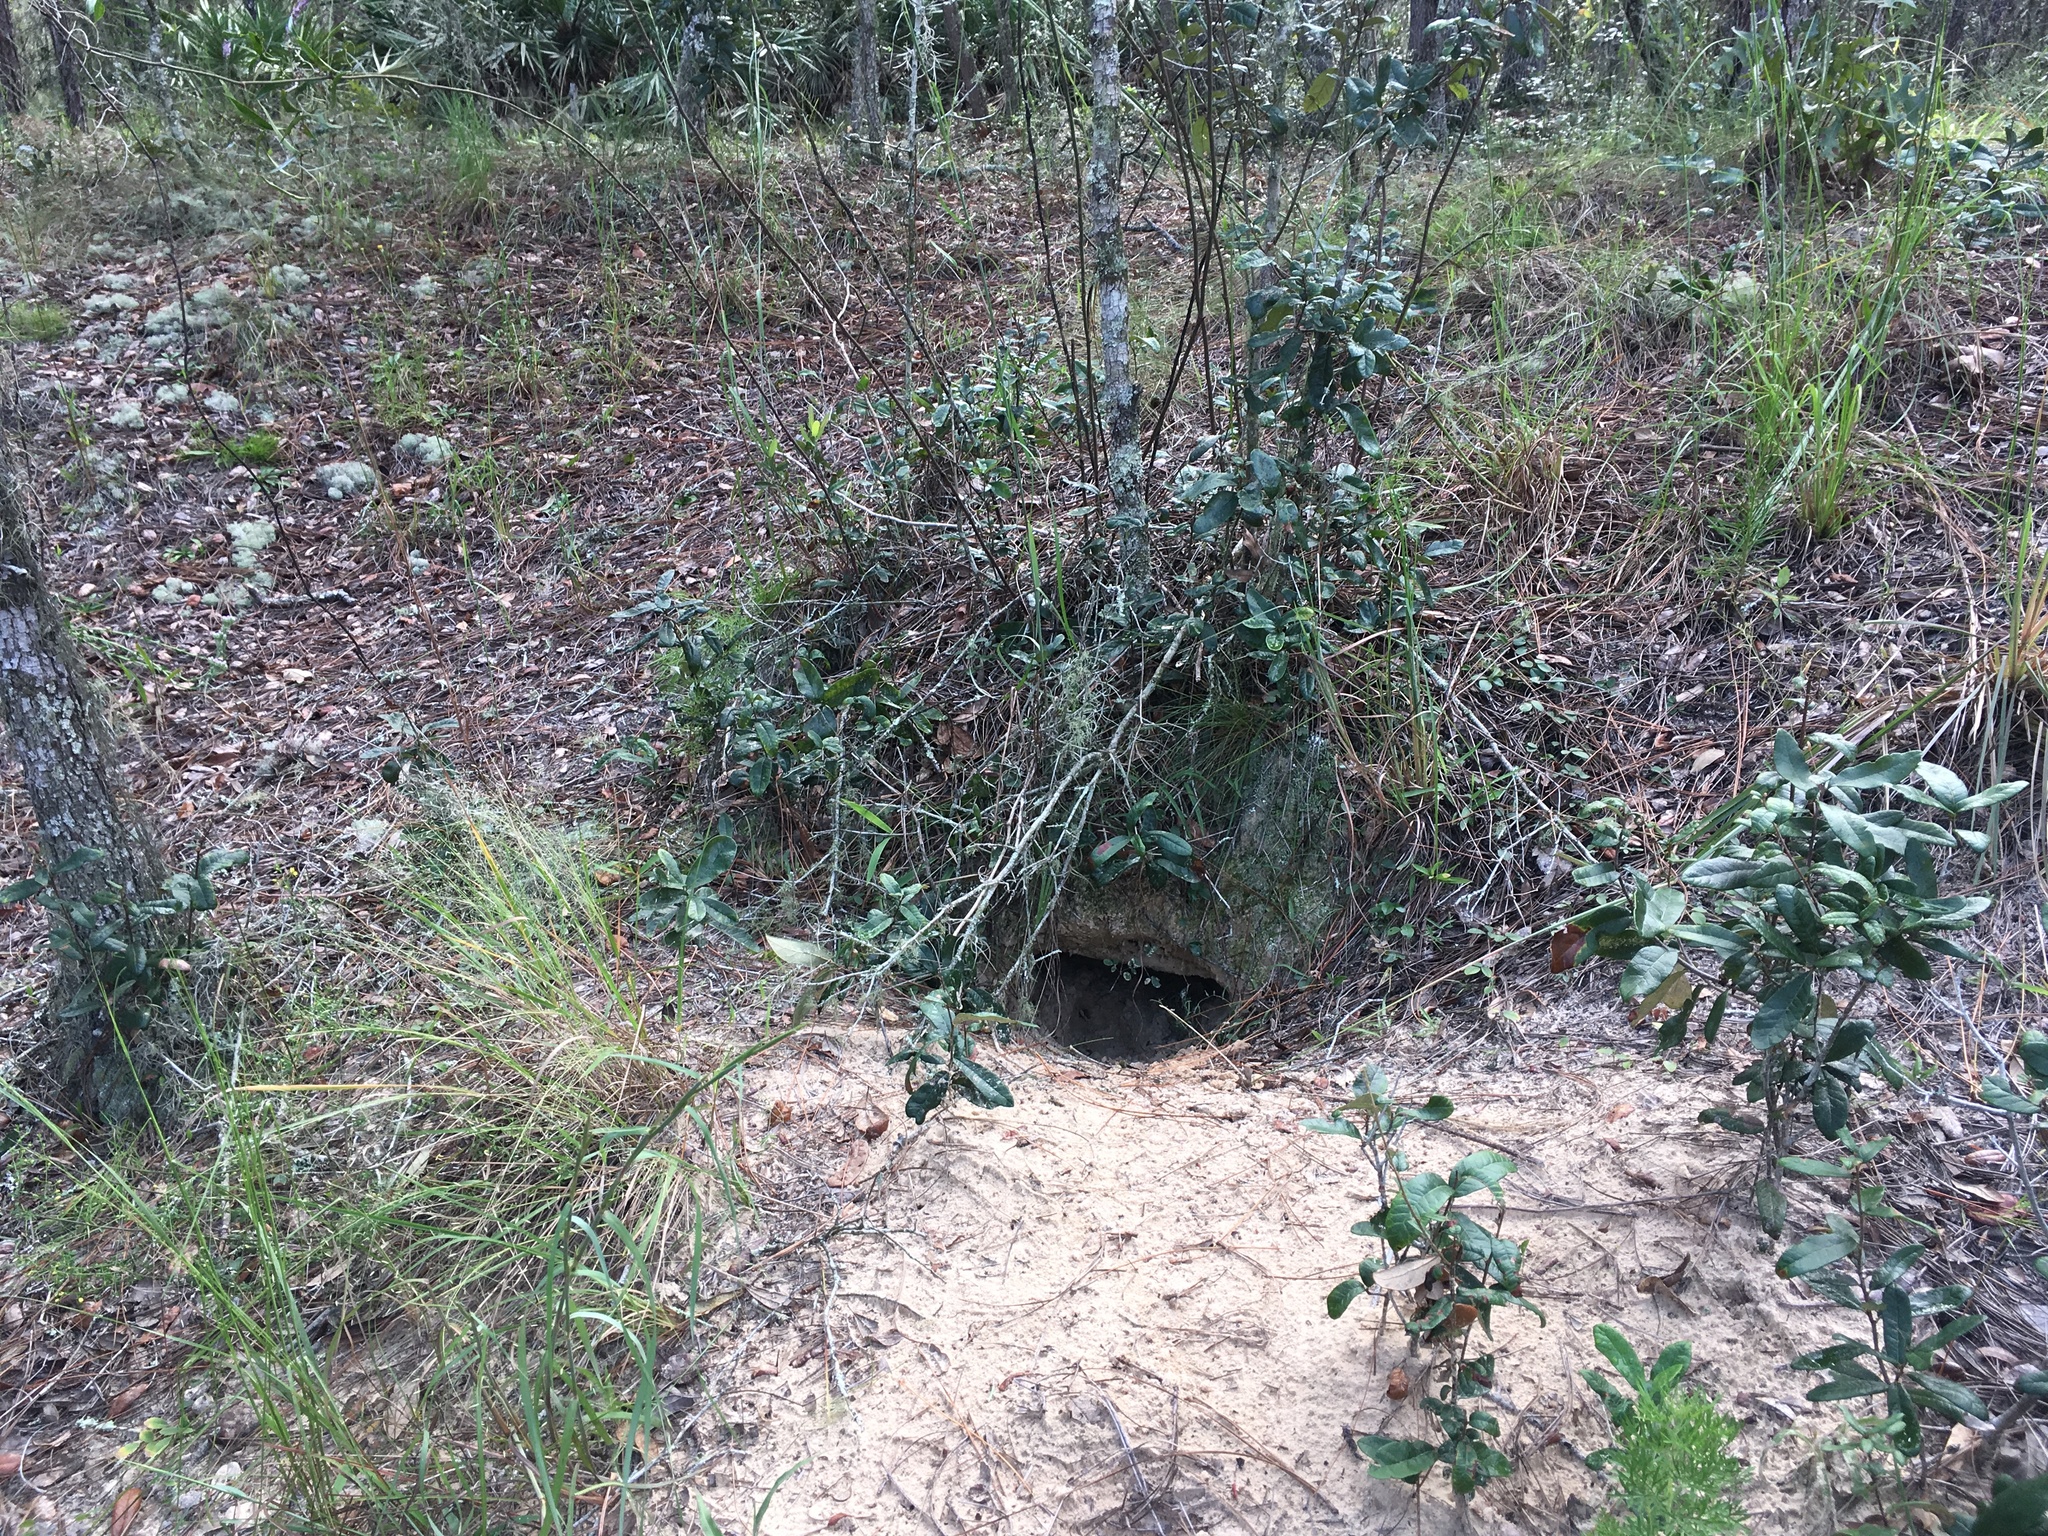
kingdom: Animalia
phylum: Chordata
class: Testudines
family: Testudinidae
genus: Gopherus
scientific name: Gopherus polyphemus
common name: Florida gopher tortoise
